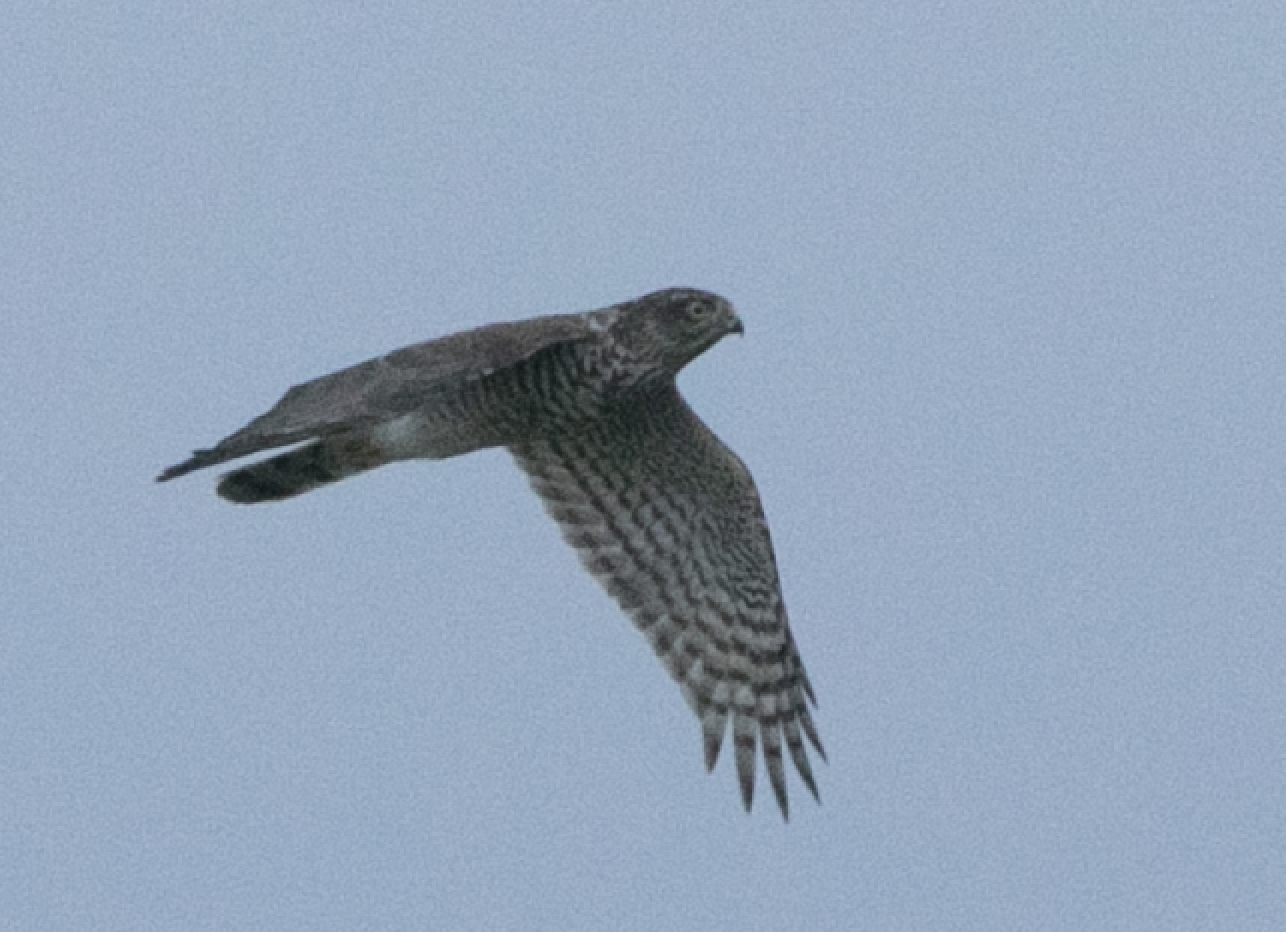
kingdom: Animalia
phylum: Chordata
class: Aves
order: Accipitriformes
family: Accipitridae
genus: Accipiter
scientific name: Accipiter nisus
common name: Eurasian sparrowhawk
